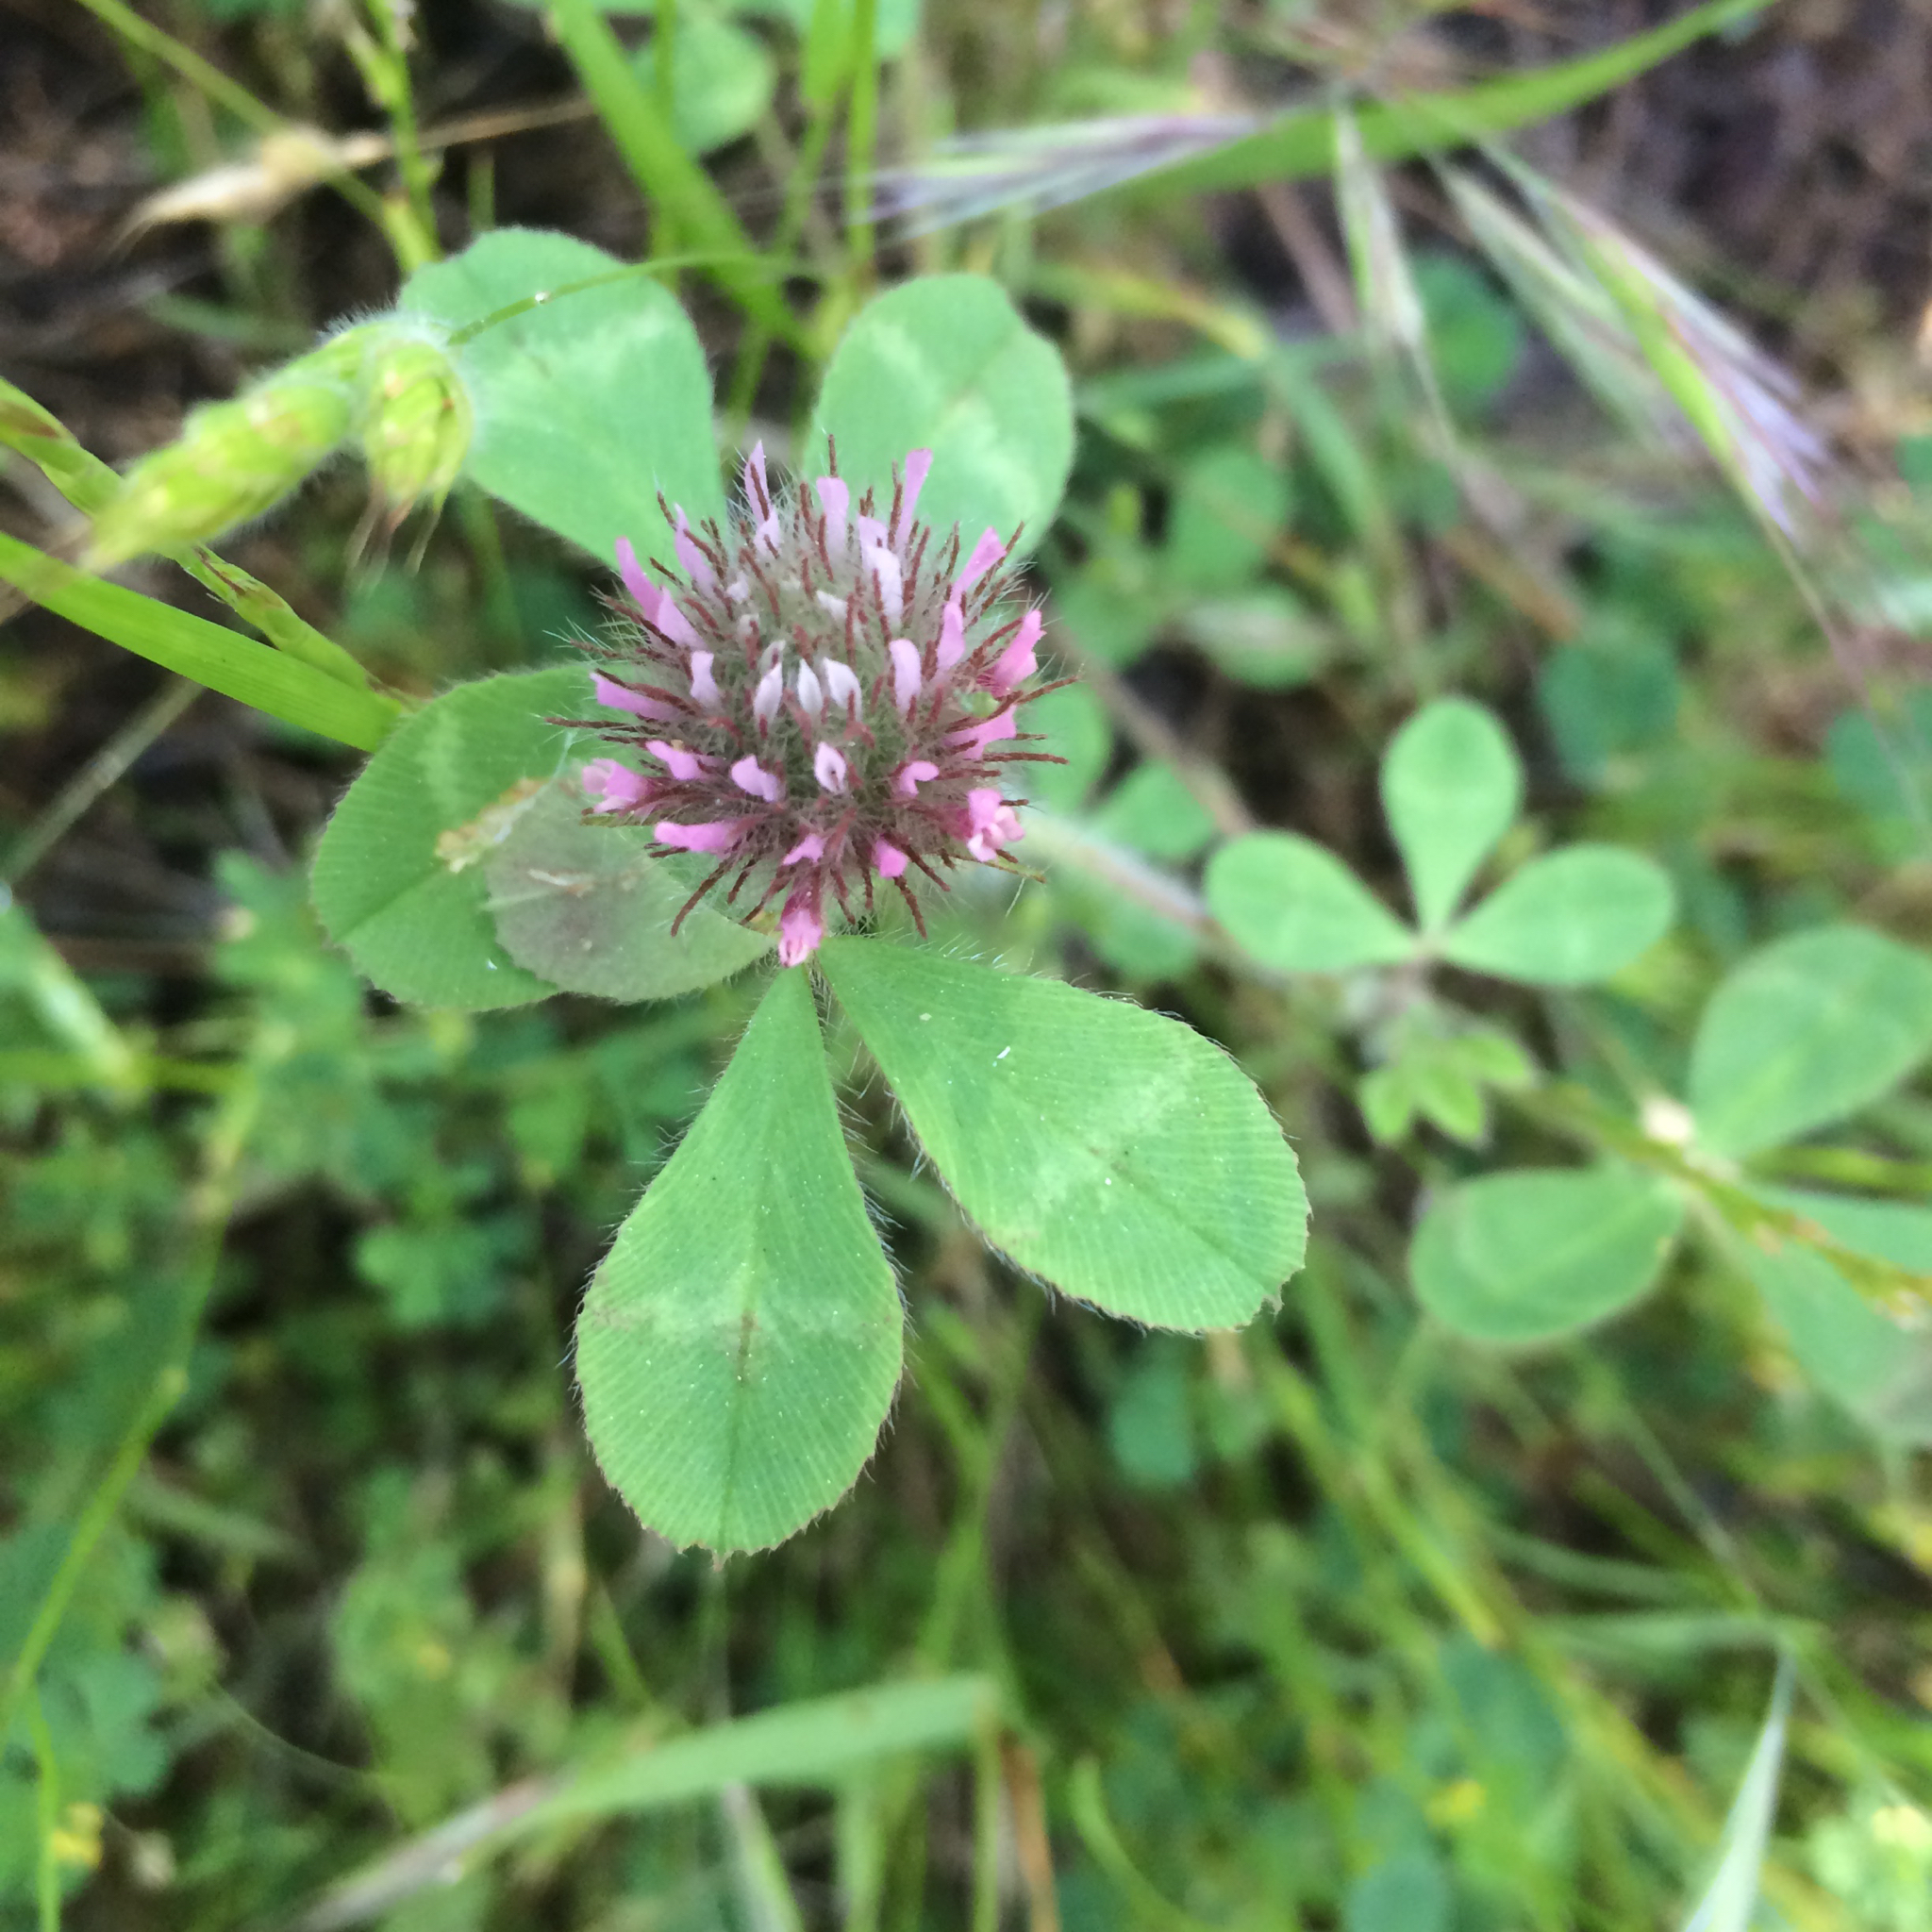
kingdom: Plantae
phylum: Tracheophyta
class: Magnoliopsida
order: Fabales
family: Fabaceae
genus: Trifolium
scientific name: Trifolium hirtum
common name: Rose clover
